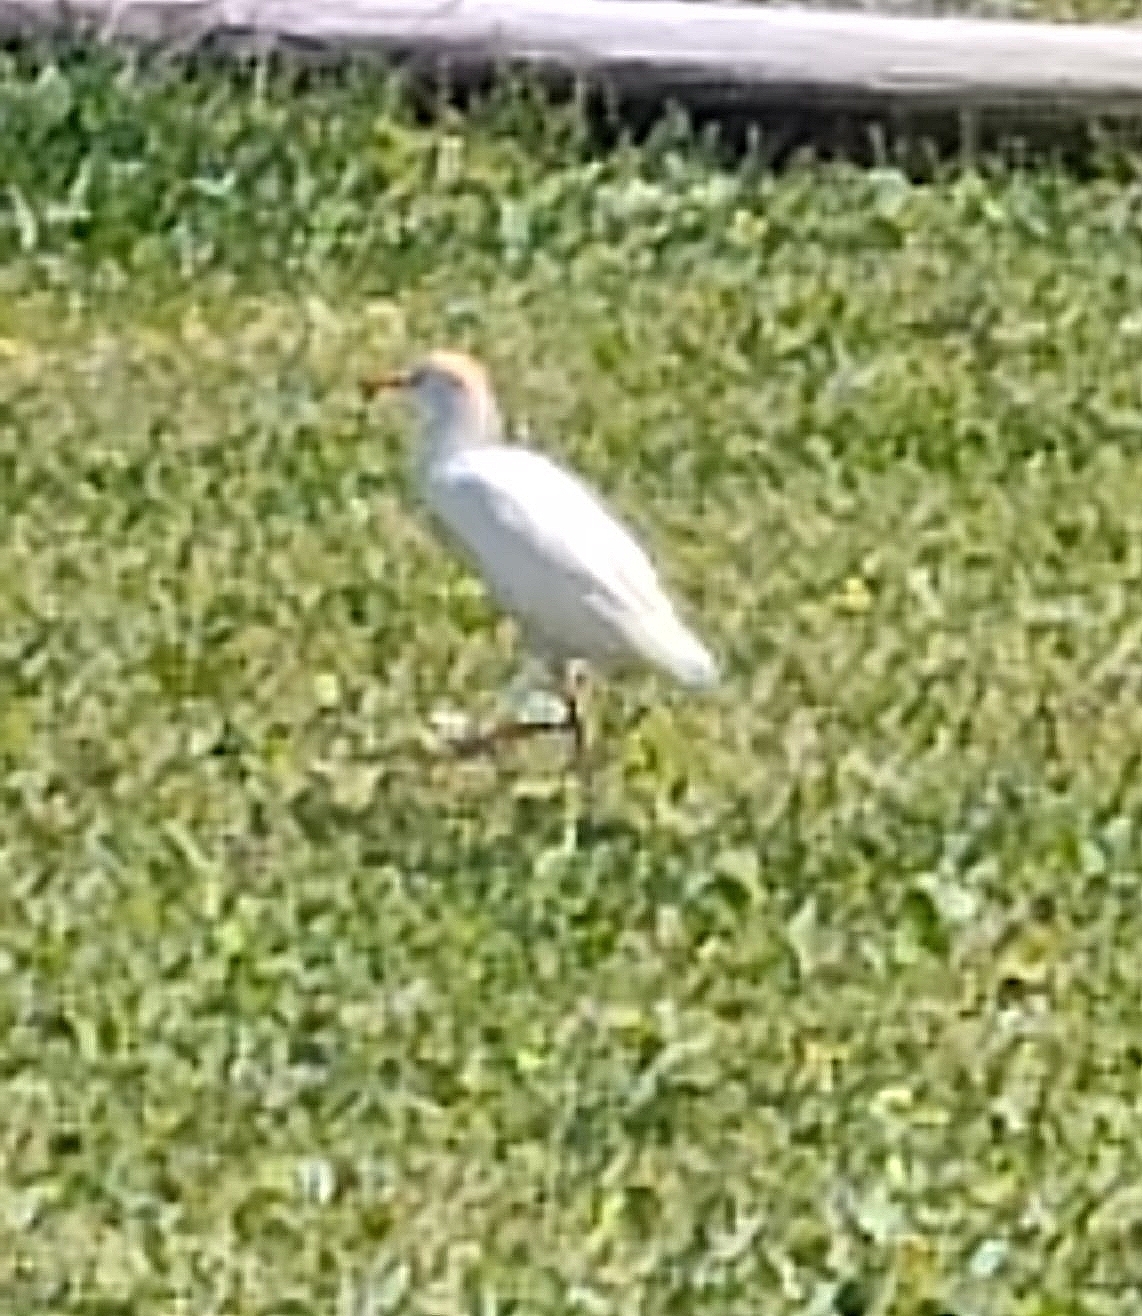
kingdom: Animalia
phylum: Chordata
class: Aves
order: Pelecaniformes
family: Ardeidae
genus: Bubulcus
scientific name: Bubulcus ibis
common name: Cattle egret
